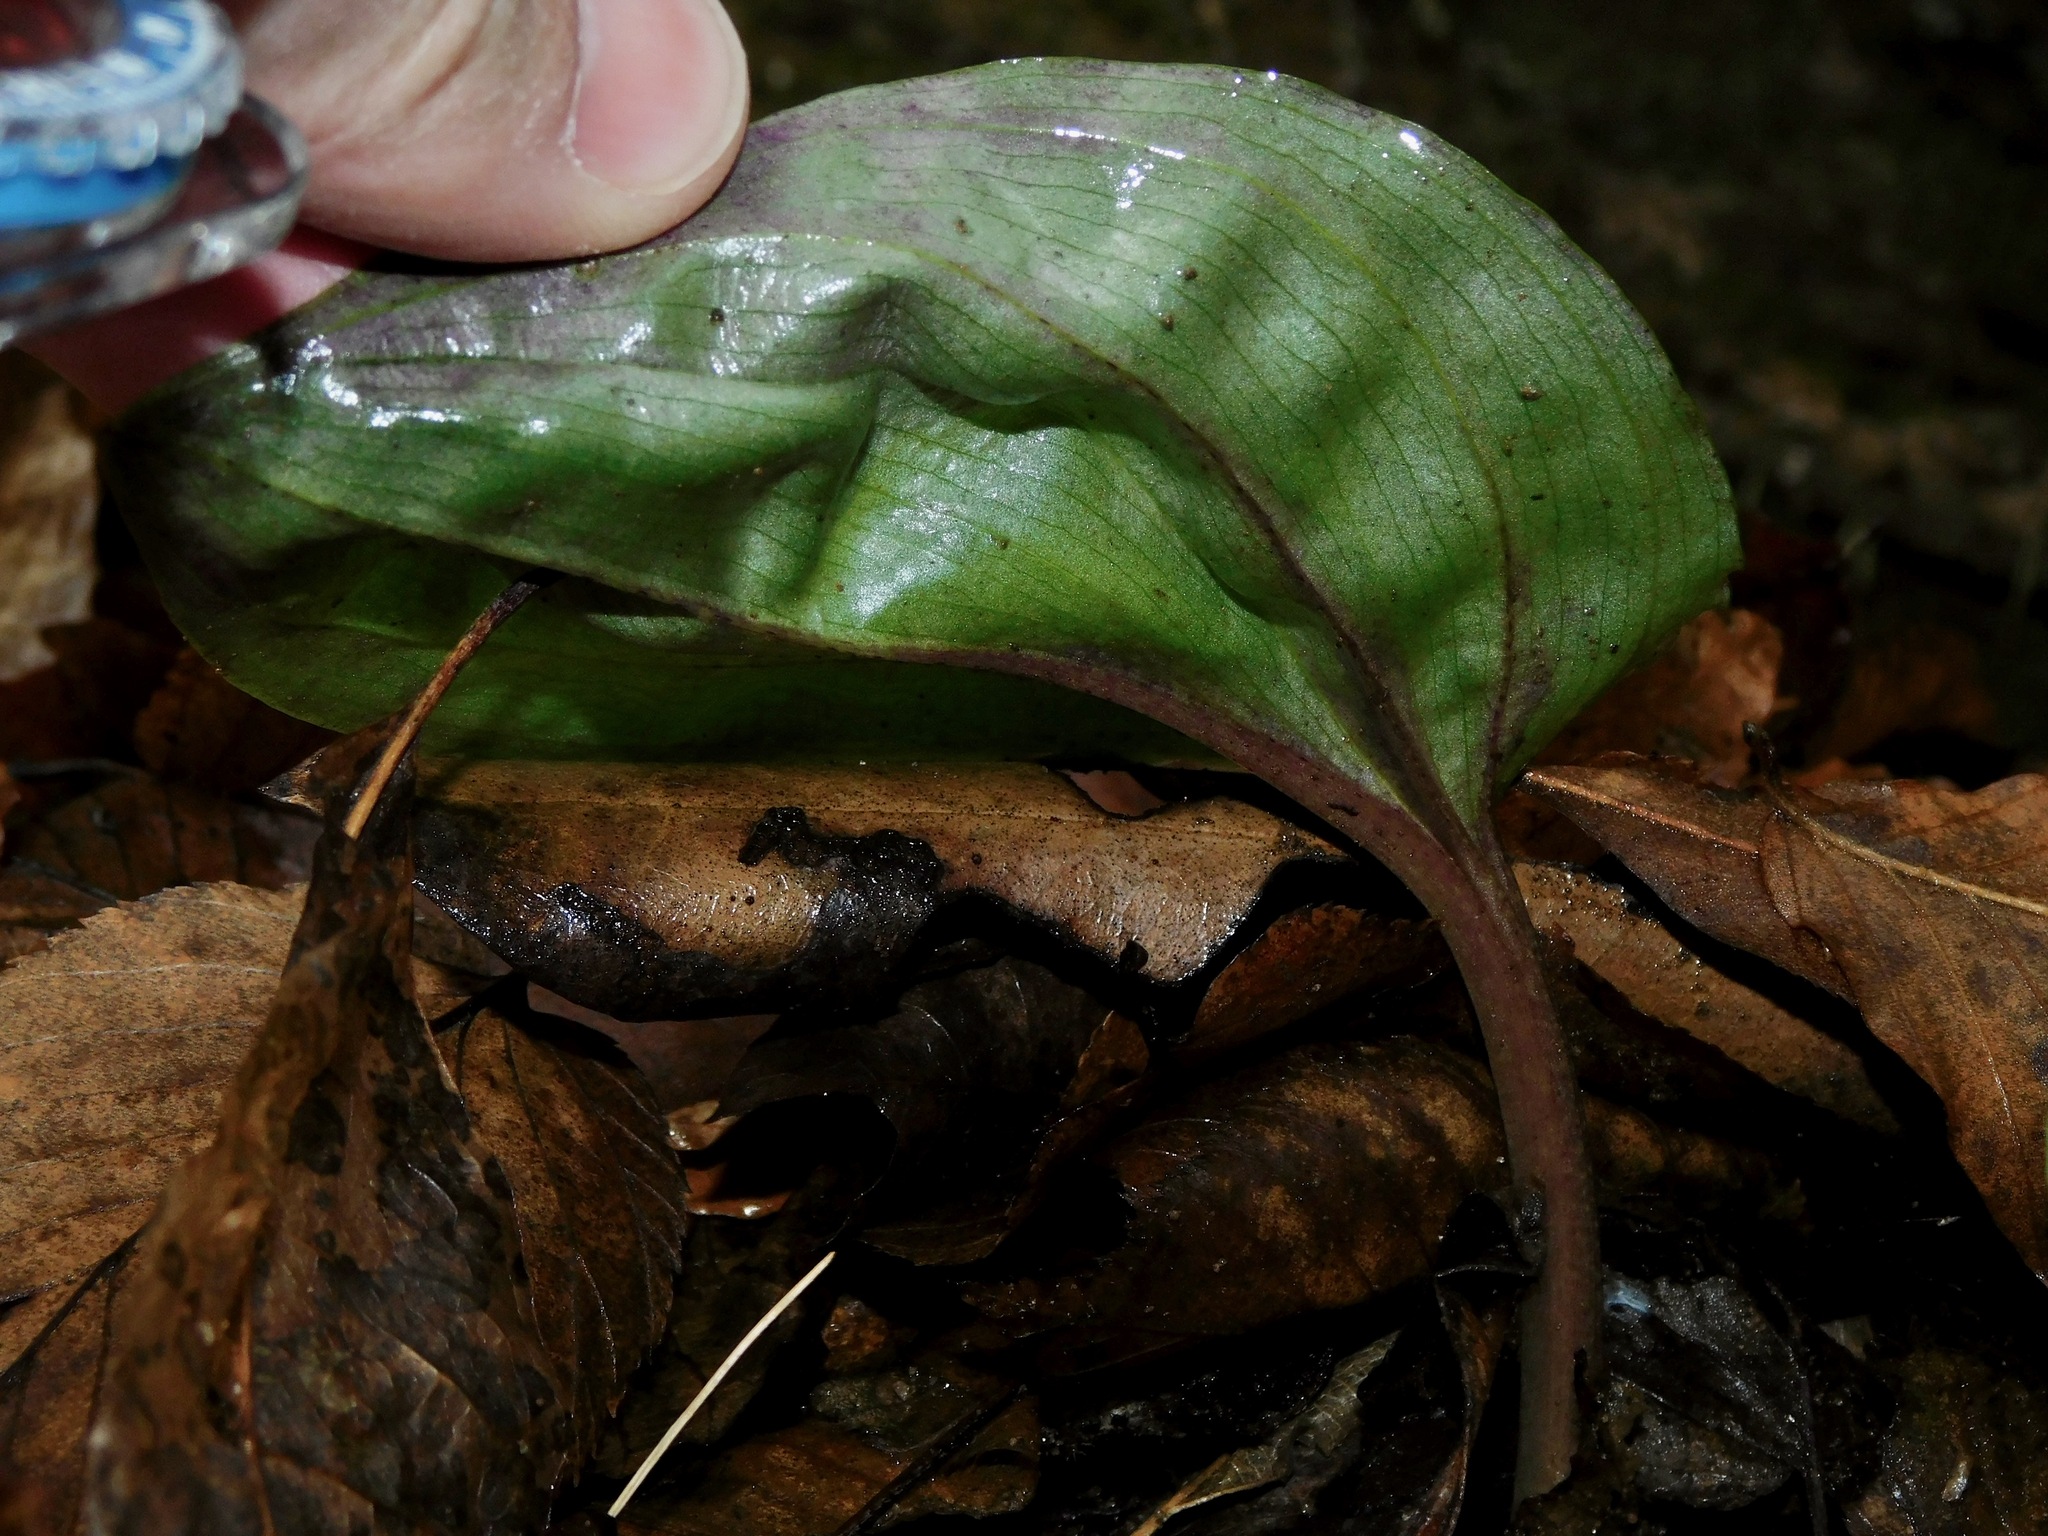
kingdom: Plantae
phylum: Tracheophyta
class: Liliopsida
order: Asparagales
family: Orchidaceae
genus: Tipularia
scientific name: Tipularia discolor
